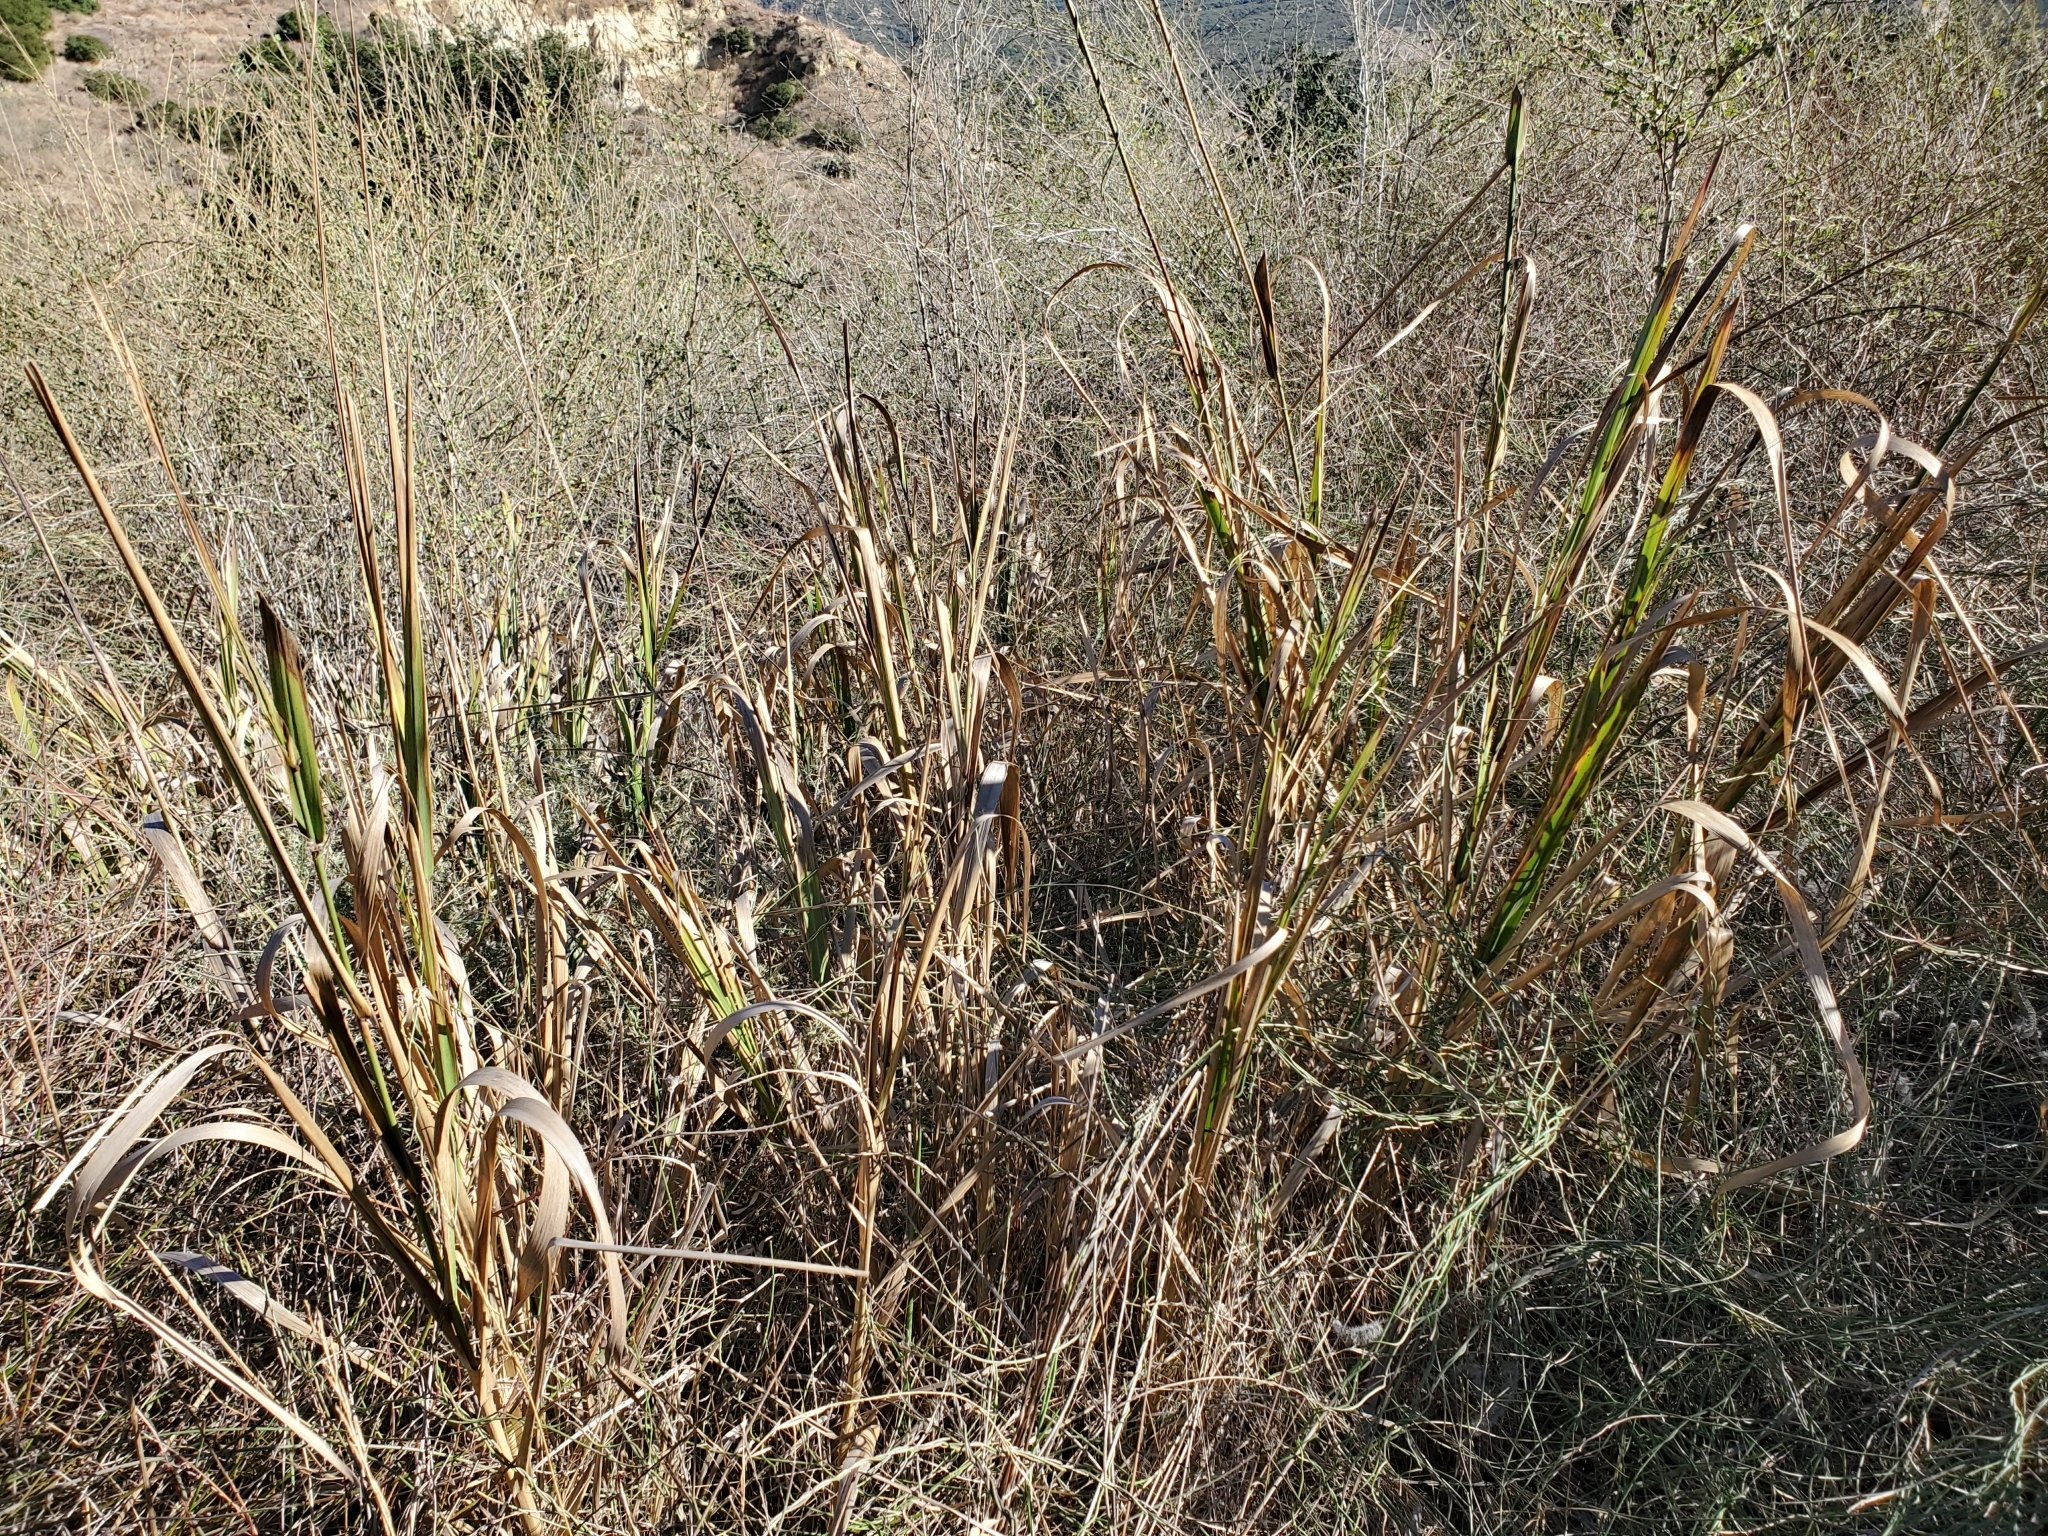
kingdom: Plantae
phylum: Tracheophyta
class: Liliopsida
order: Poales
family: Poaceae
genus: Leymus
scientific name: Leymus condensatus
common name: Giant wild rye
